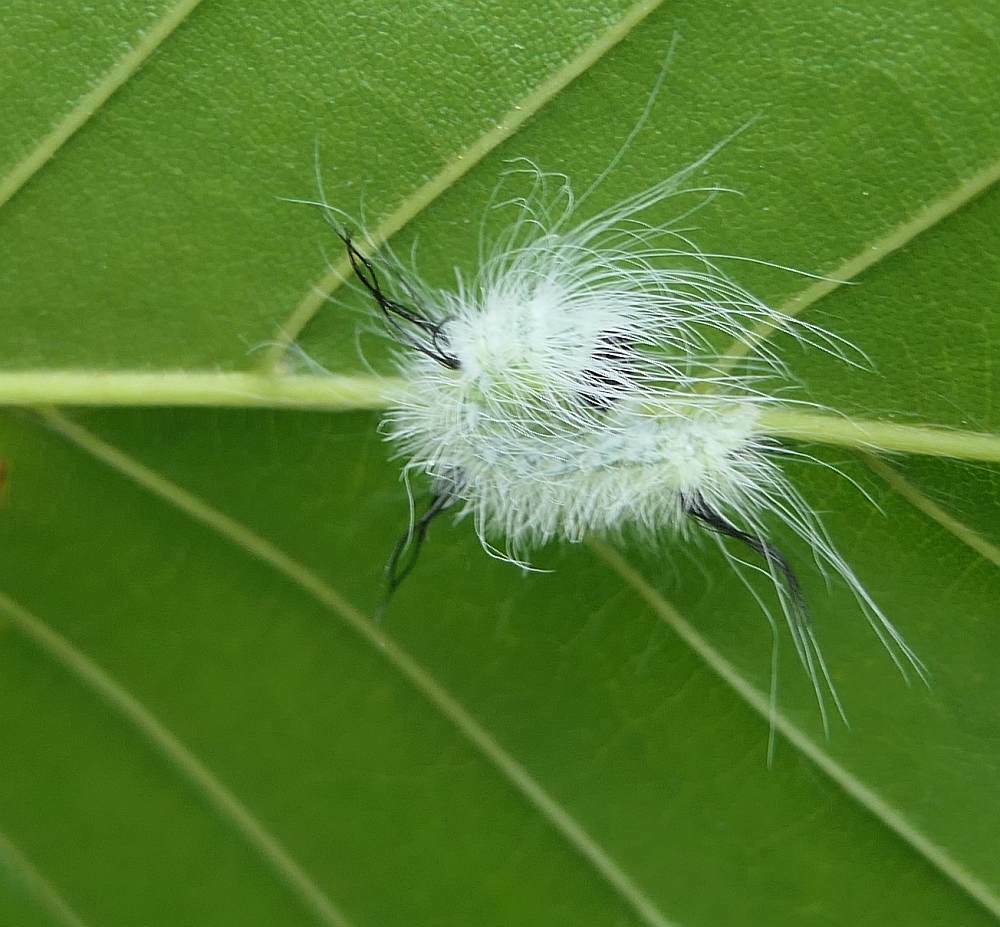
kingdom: Animalia
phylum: Arthropoda
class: Insecta
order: Lepidoptera
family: Noctuidae
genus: Acronicta
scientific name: Acronicta americana
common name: American dagger
